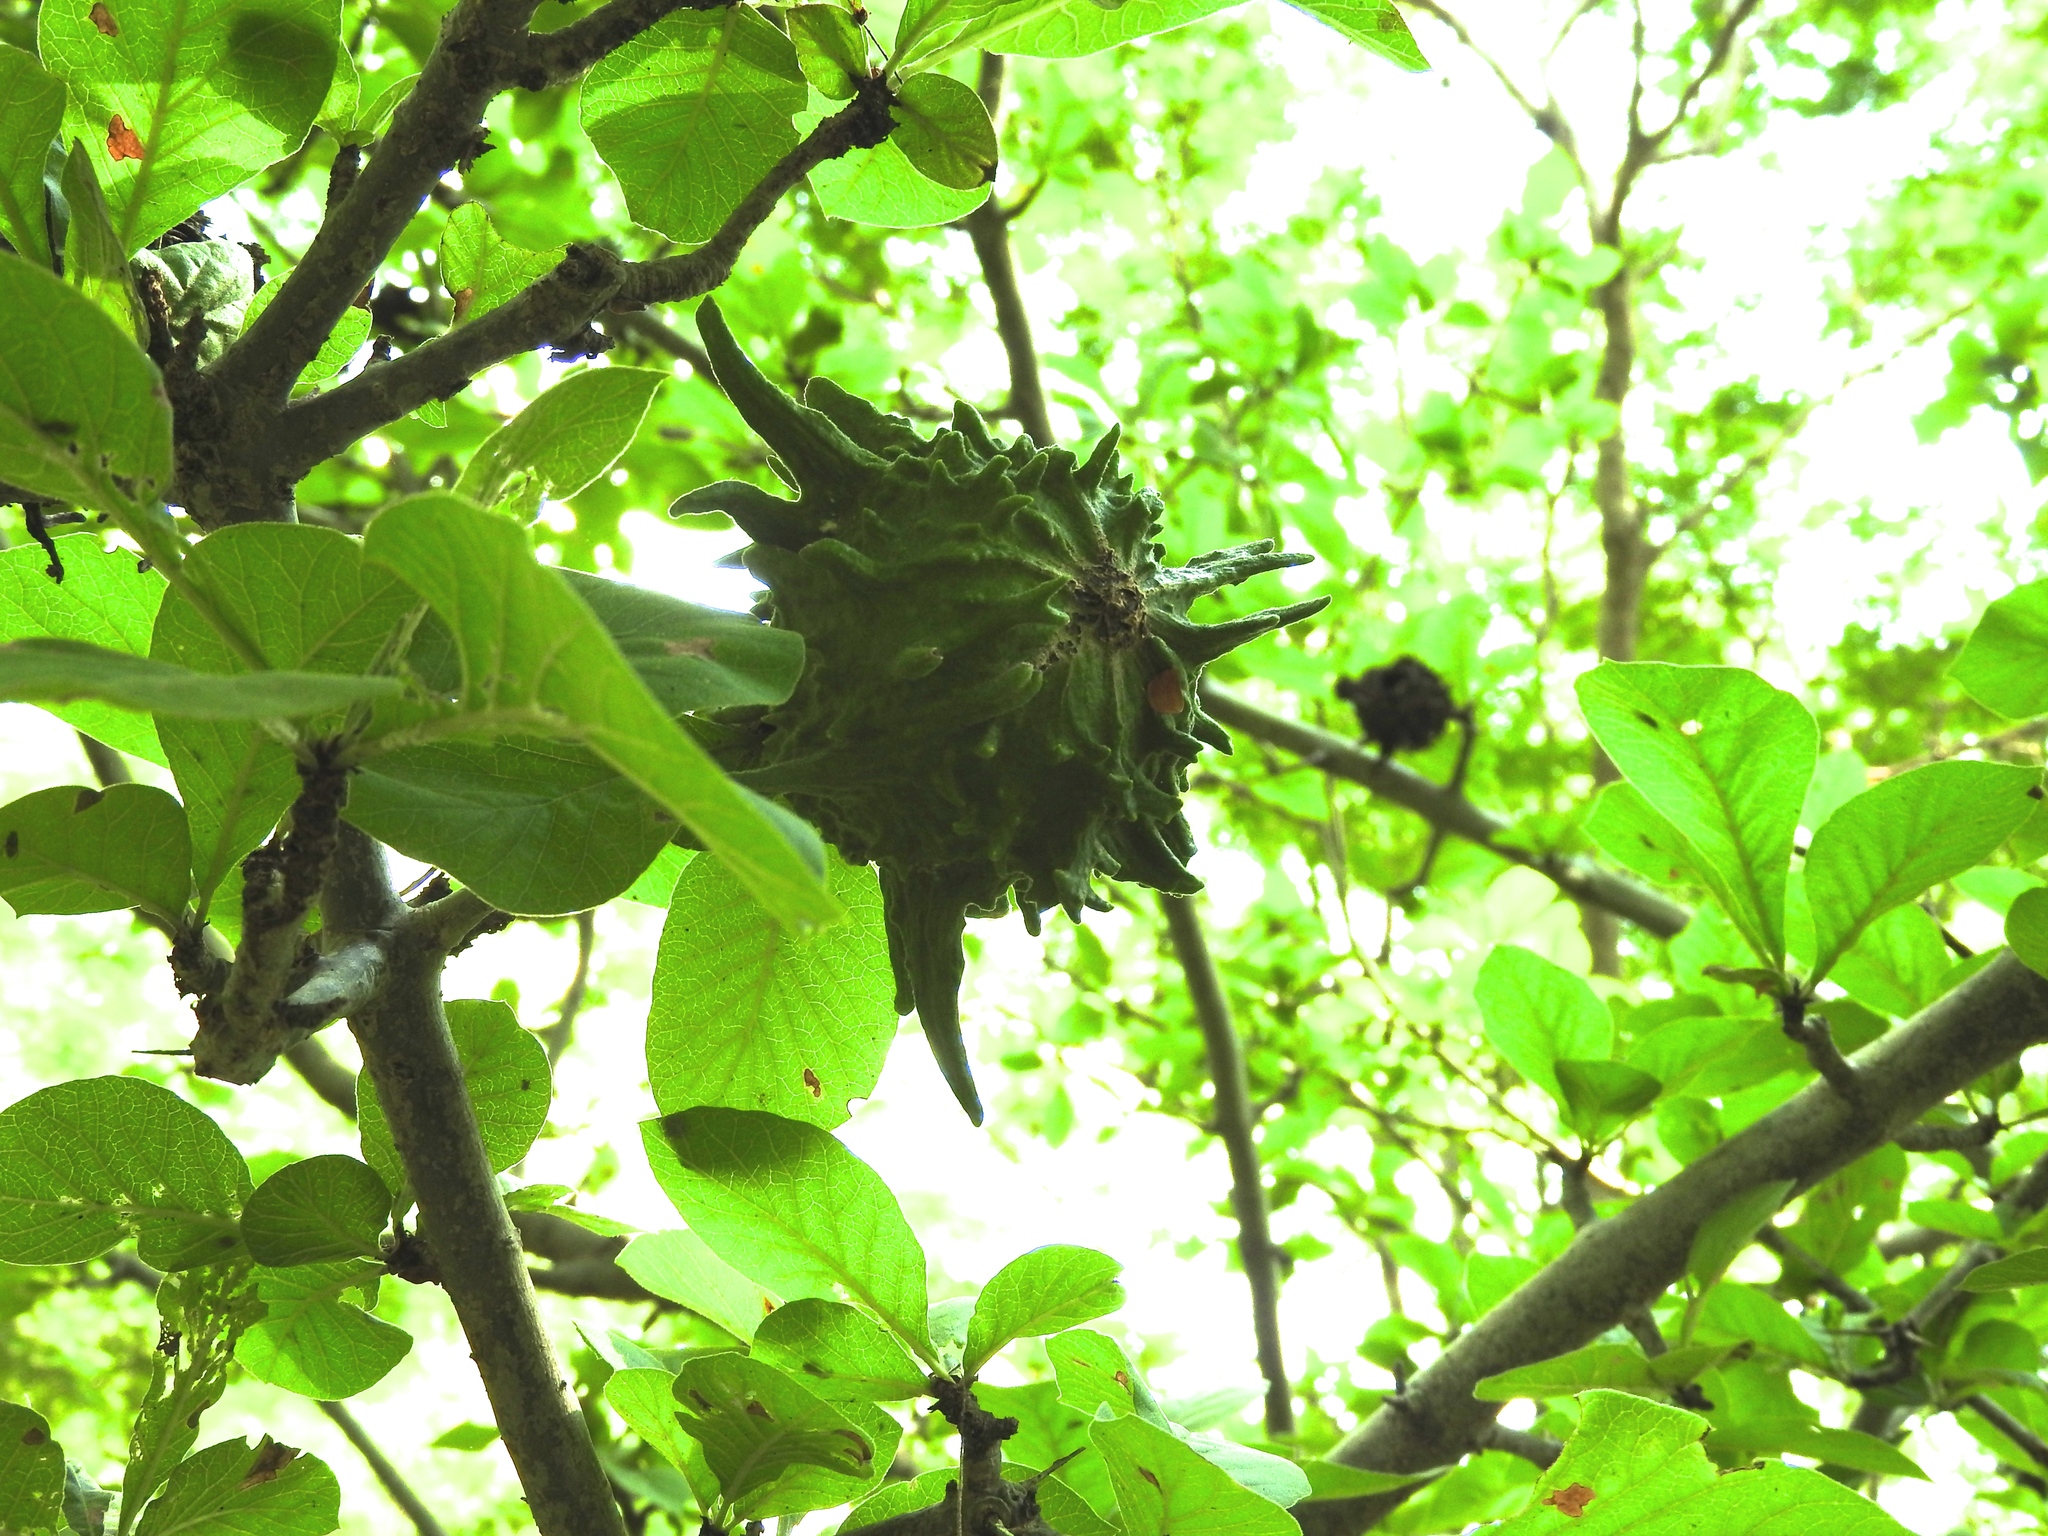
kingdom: Plantae
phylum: Tracheophyta
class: Magnoliopsida
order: Gentianales
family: Rubiaceae
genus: Randia
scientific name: Randia echinocarpa
